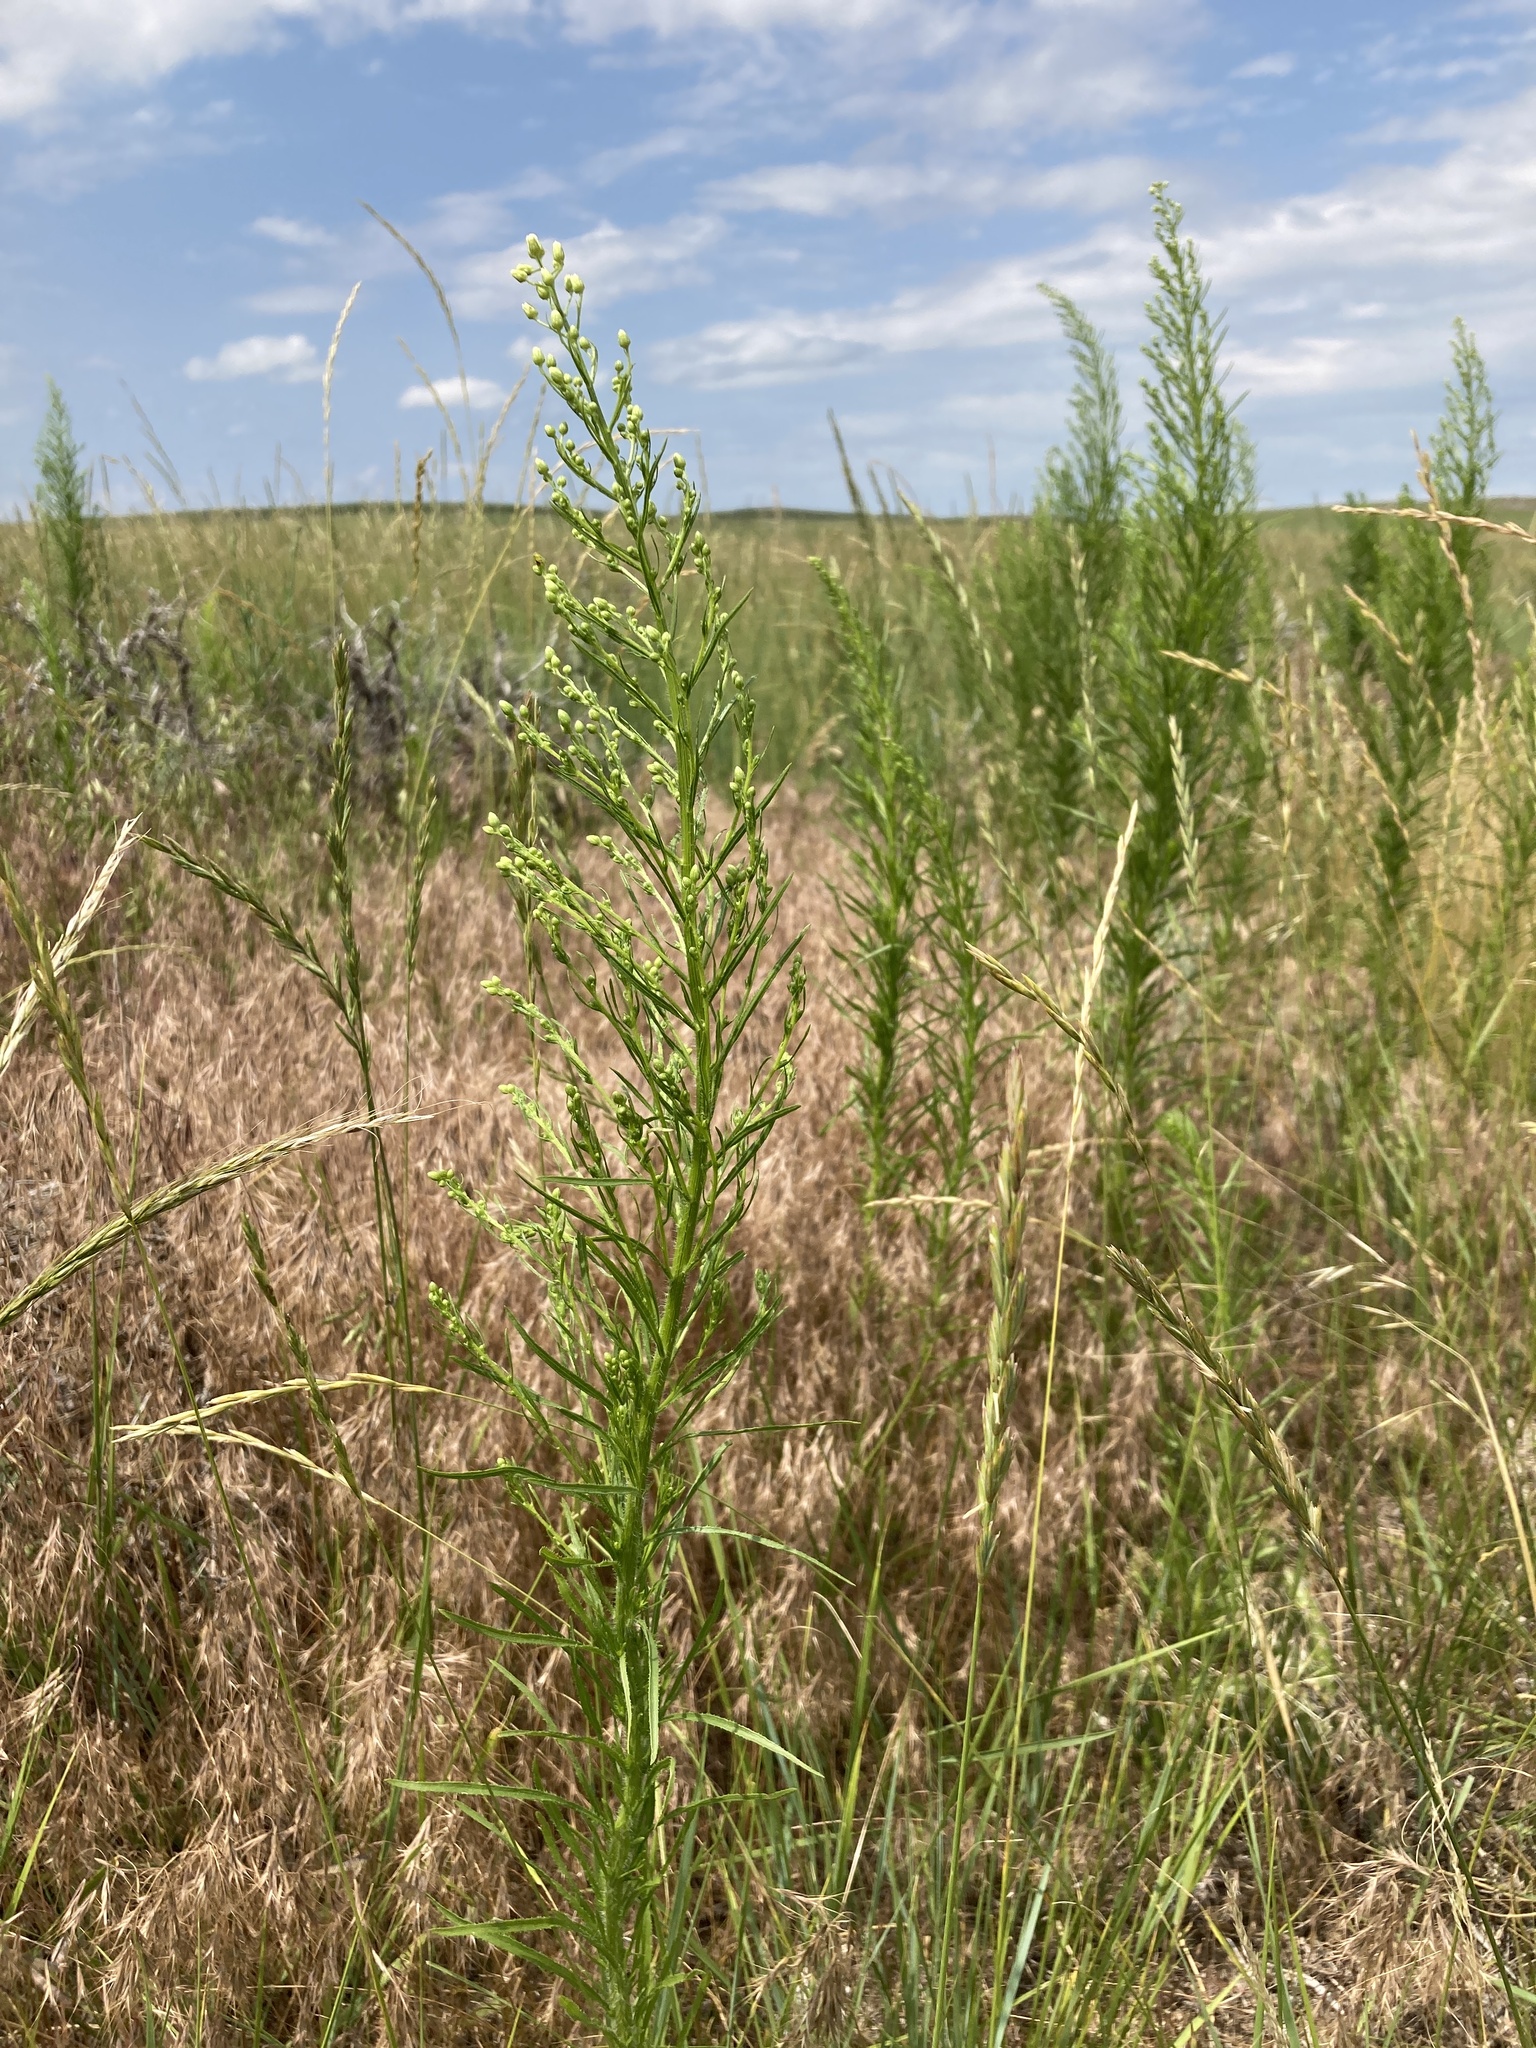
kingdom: Plantae
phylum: Tracheophyta
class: Magnoliopsida
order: Asterales
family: Asteraceae
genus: Erigeron
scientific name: Erigeron canadensis
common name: Canadian fleabane
